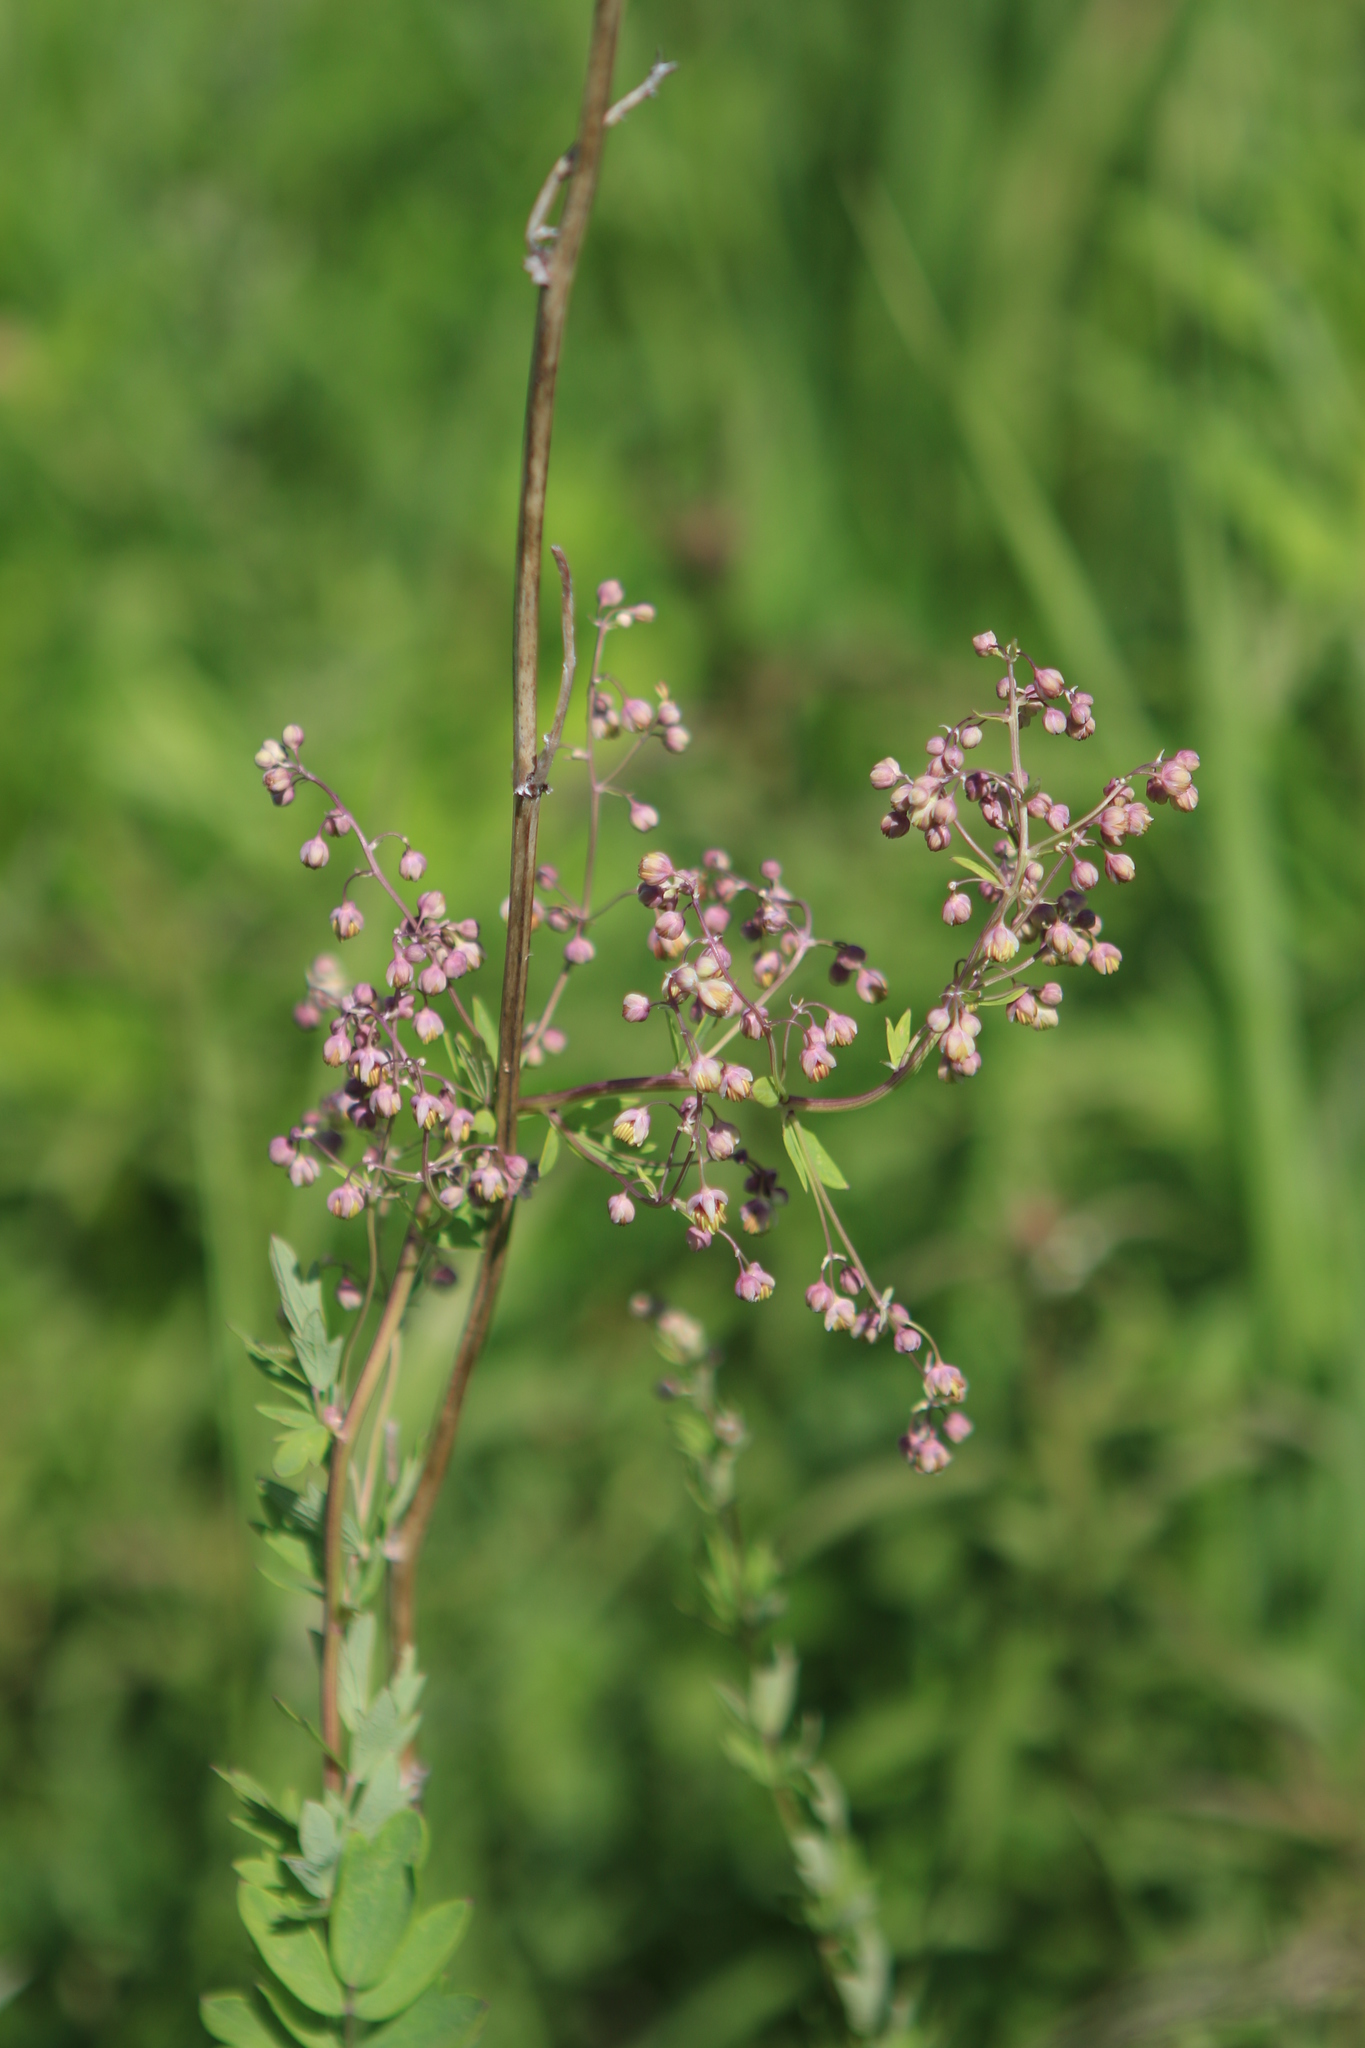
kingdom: Plantae
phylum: Tracheophyta
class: Magnoliopsida
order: Ranunculales
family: Ranunculaceae
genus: Thalictrum
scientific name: Thalictrum simplex
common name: Small meadow-rue
